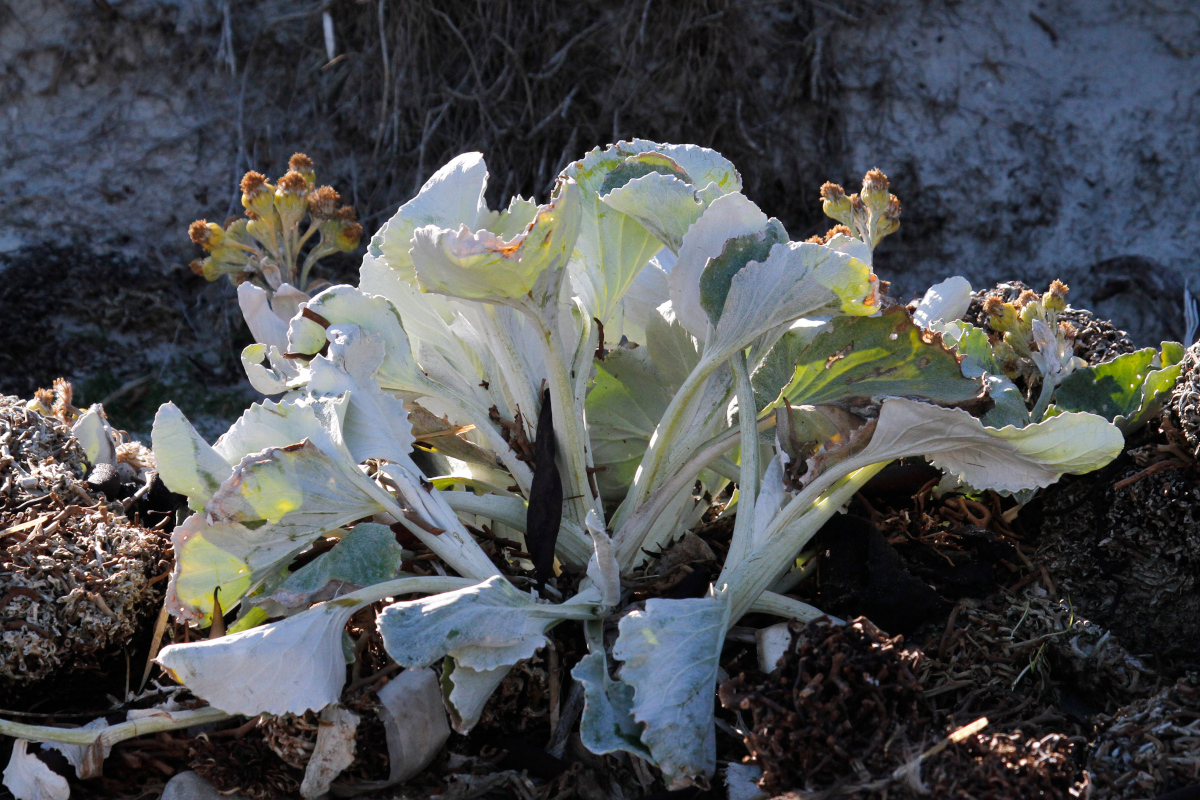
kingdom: Plantae
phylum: Tracheophyta
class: Magnoliopsida
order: Asterales
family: Asteraceae
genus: Senecio
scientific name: Senecio candidans
